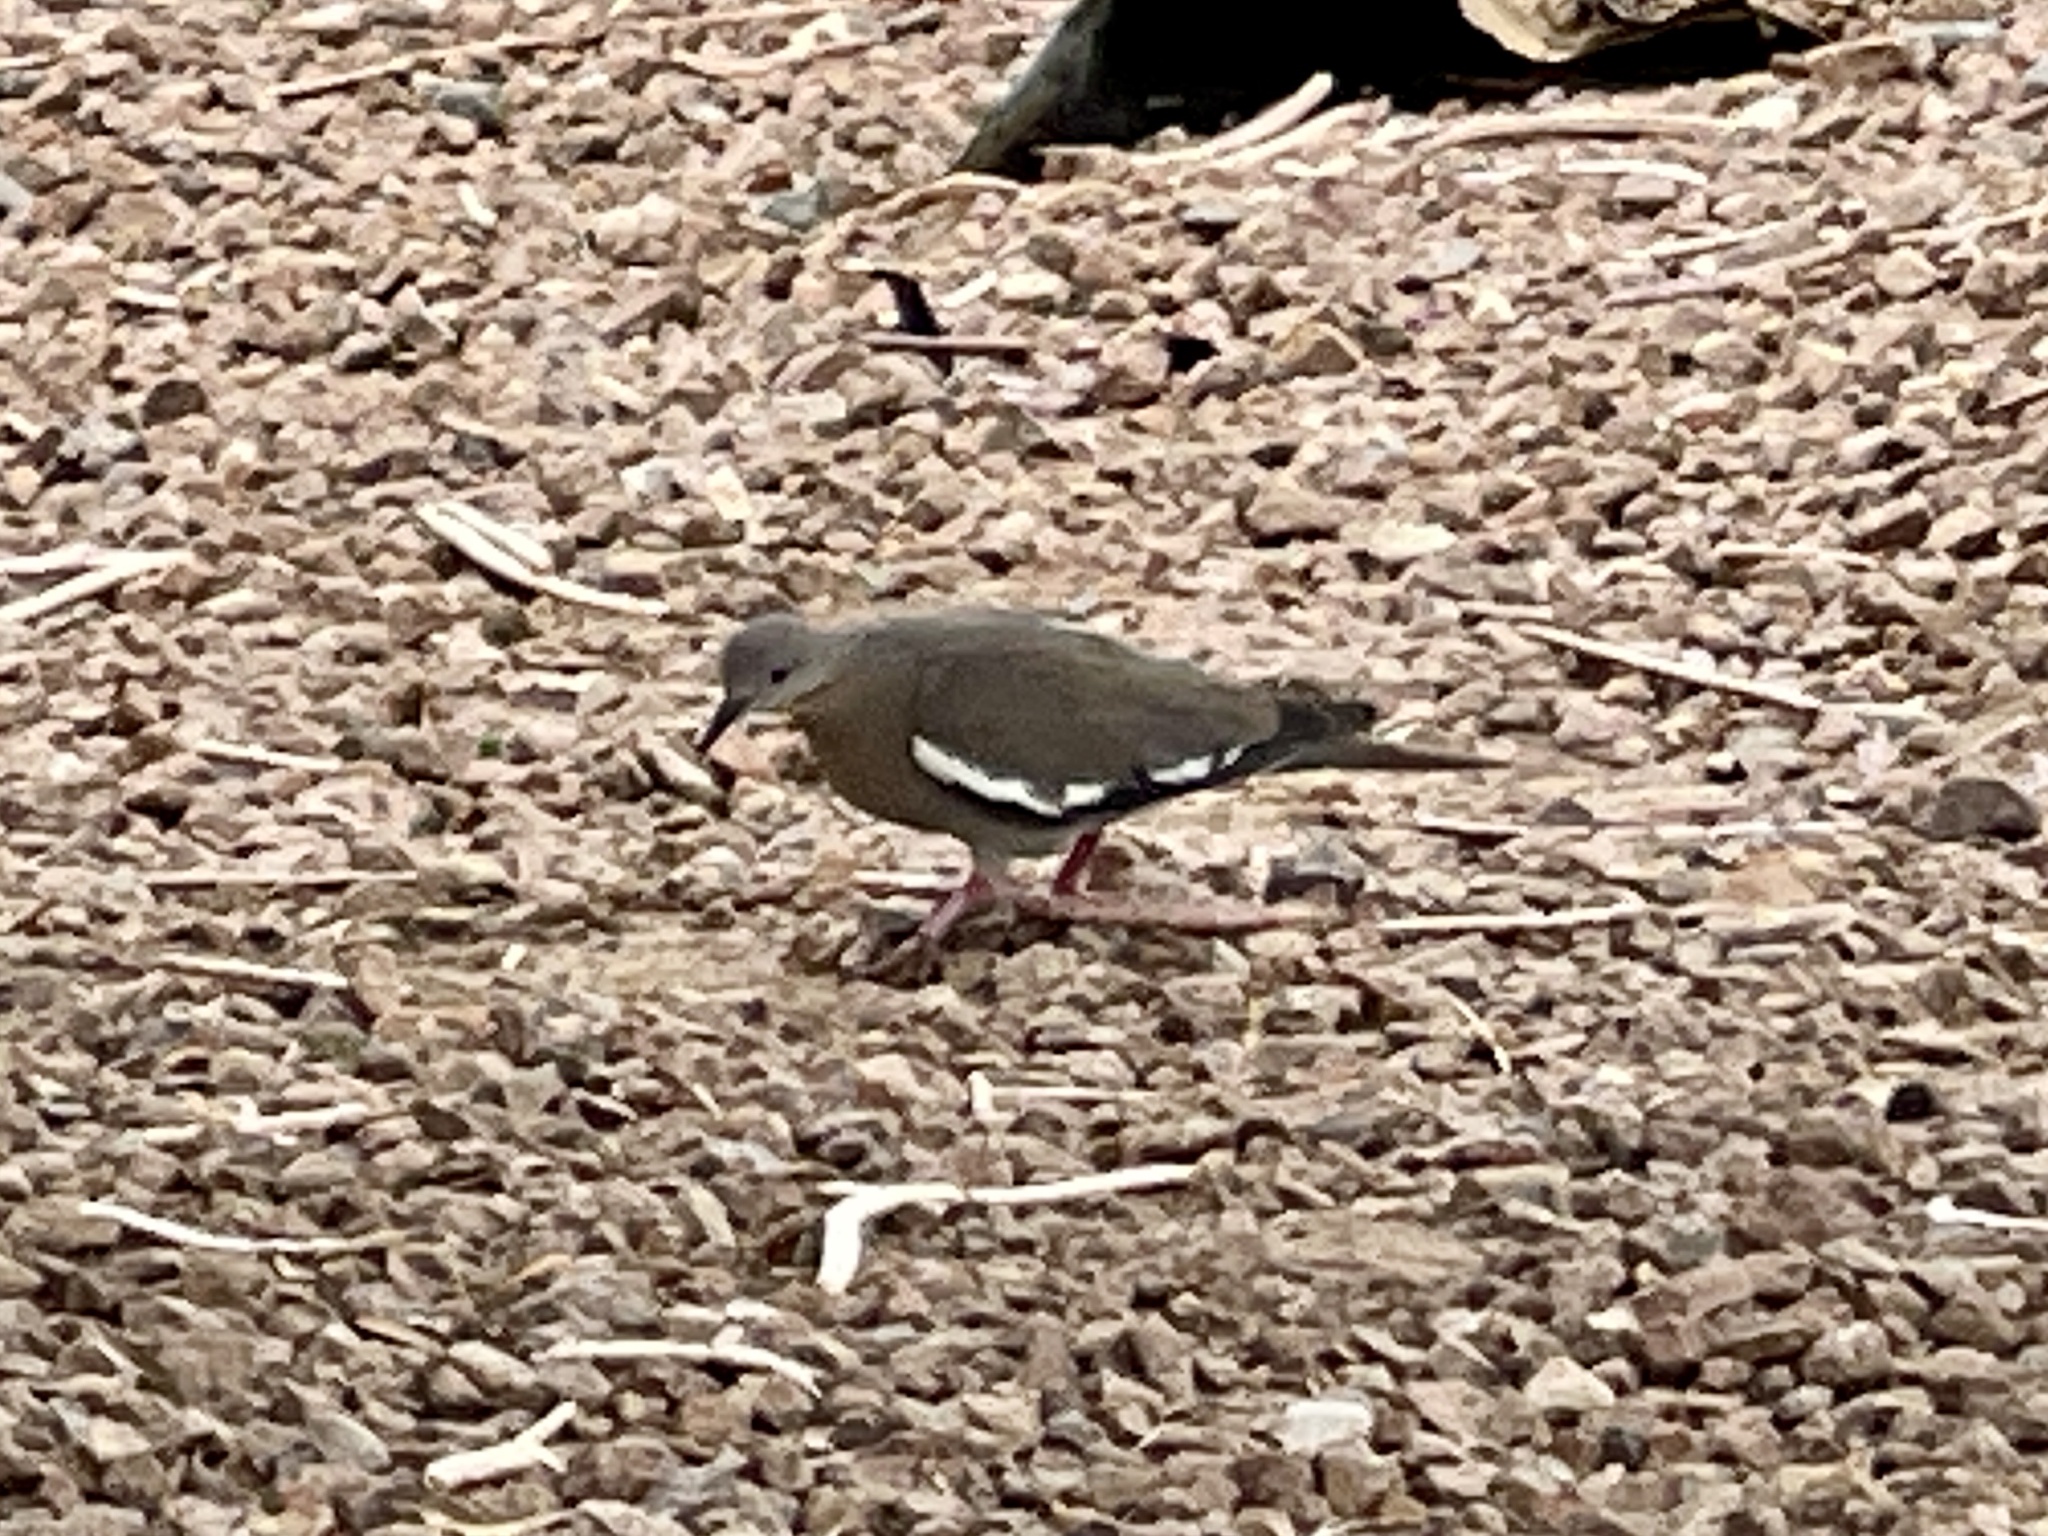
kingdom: Animalia
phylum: Chordata
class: Aves
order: Columbiformes
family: Columbidae
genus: Zenaida
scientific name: Zenaida asiatica
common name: White-winged dove
